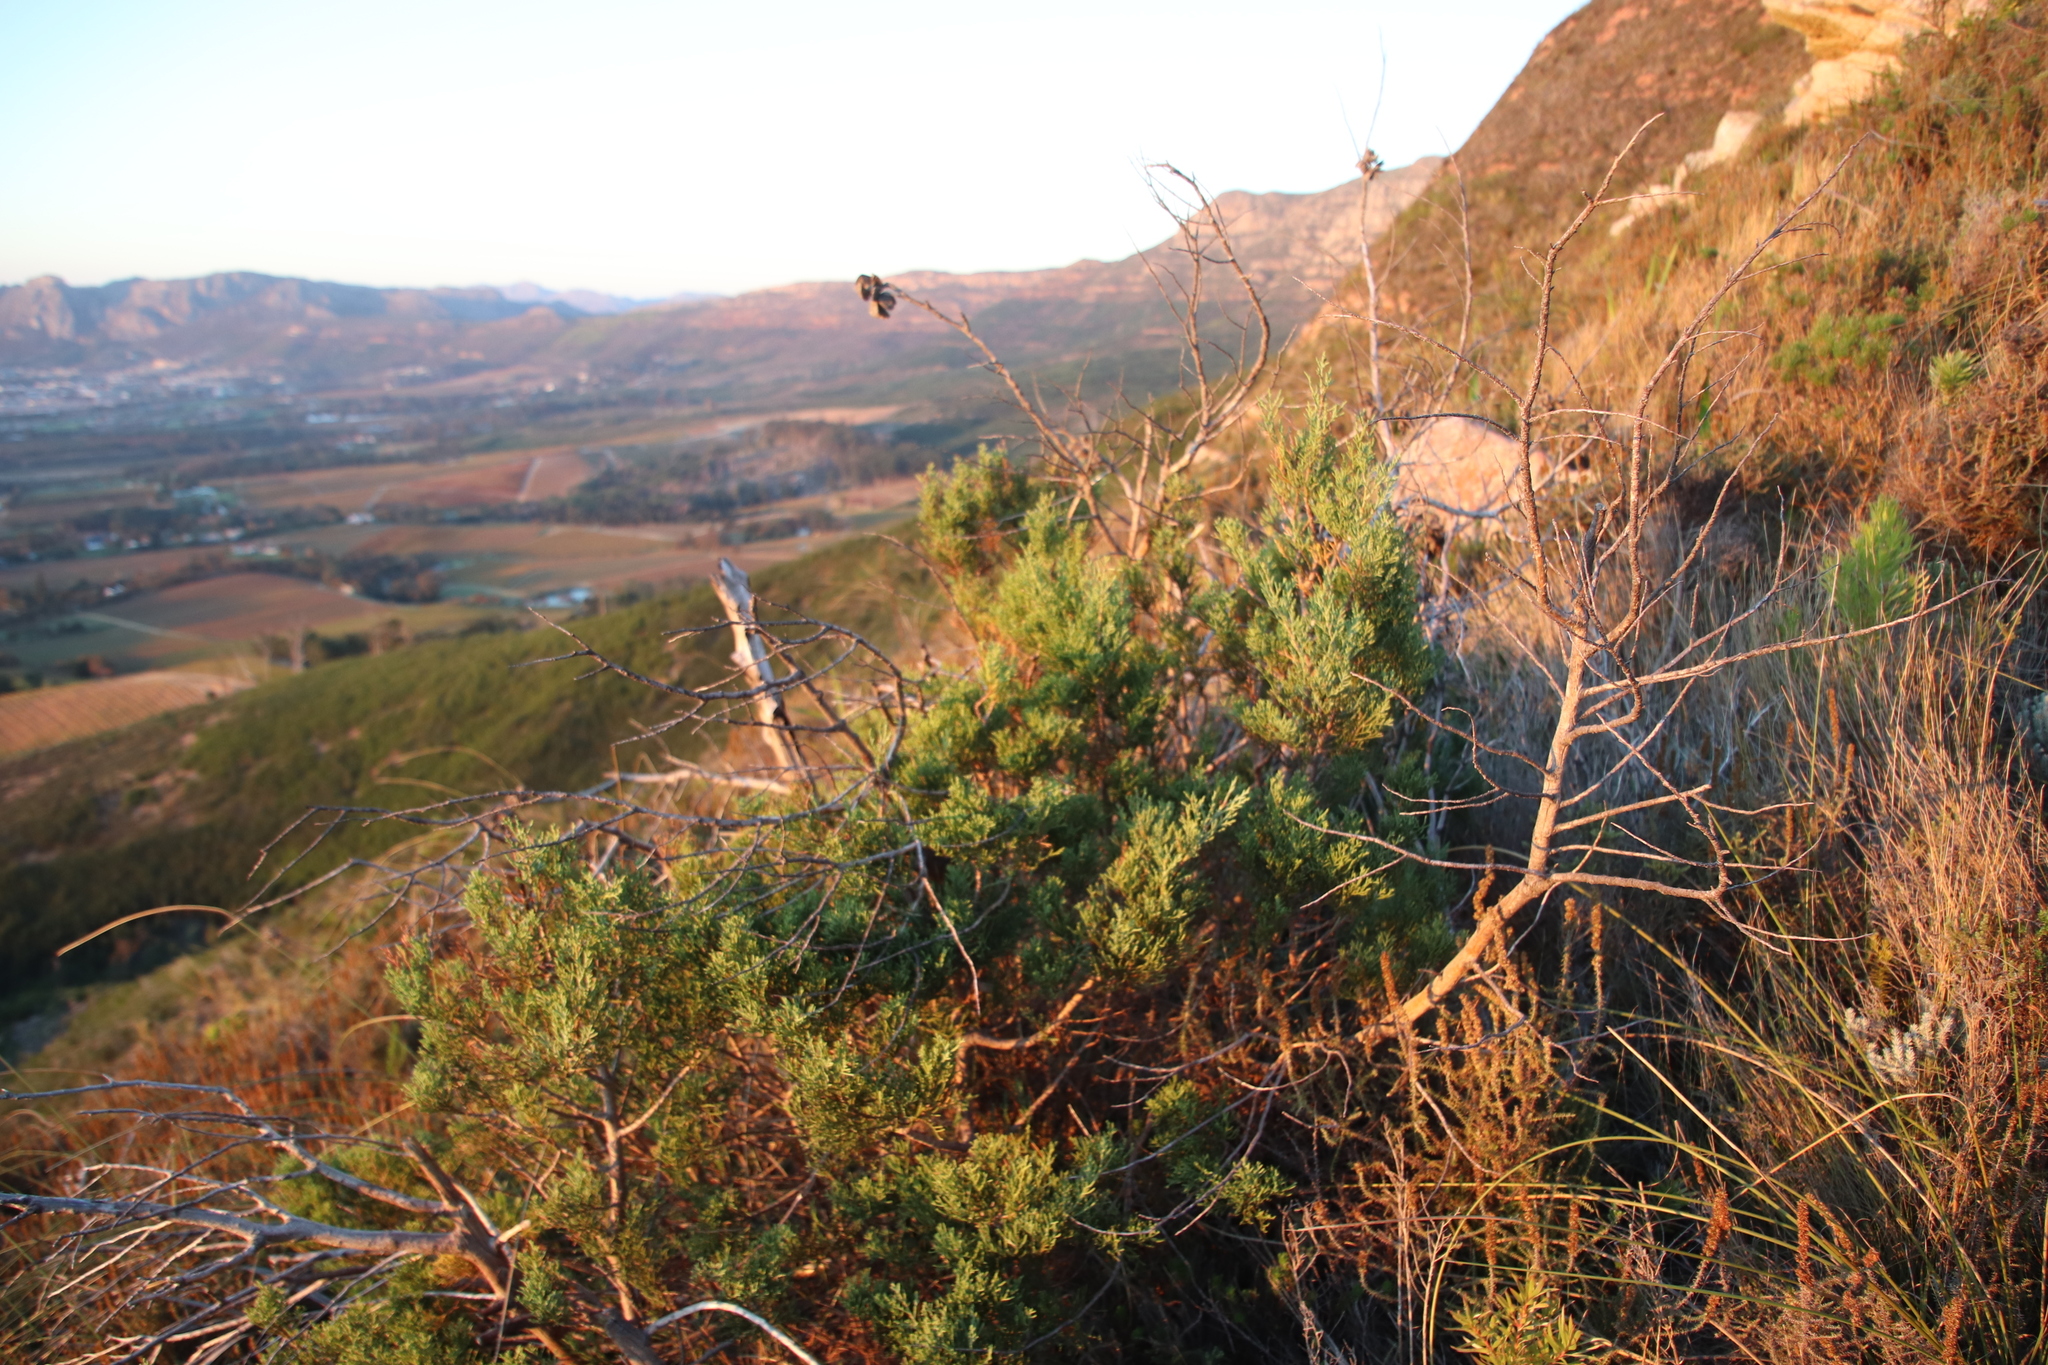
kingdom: Plantae
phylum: Tracheophyta
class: Pinopsida
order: Pinales
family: Cupressaceae
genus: Widdringtonia
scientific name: Widdringtonia nodiflora
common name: Cape cypress
